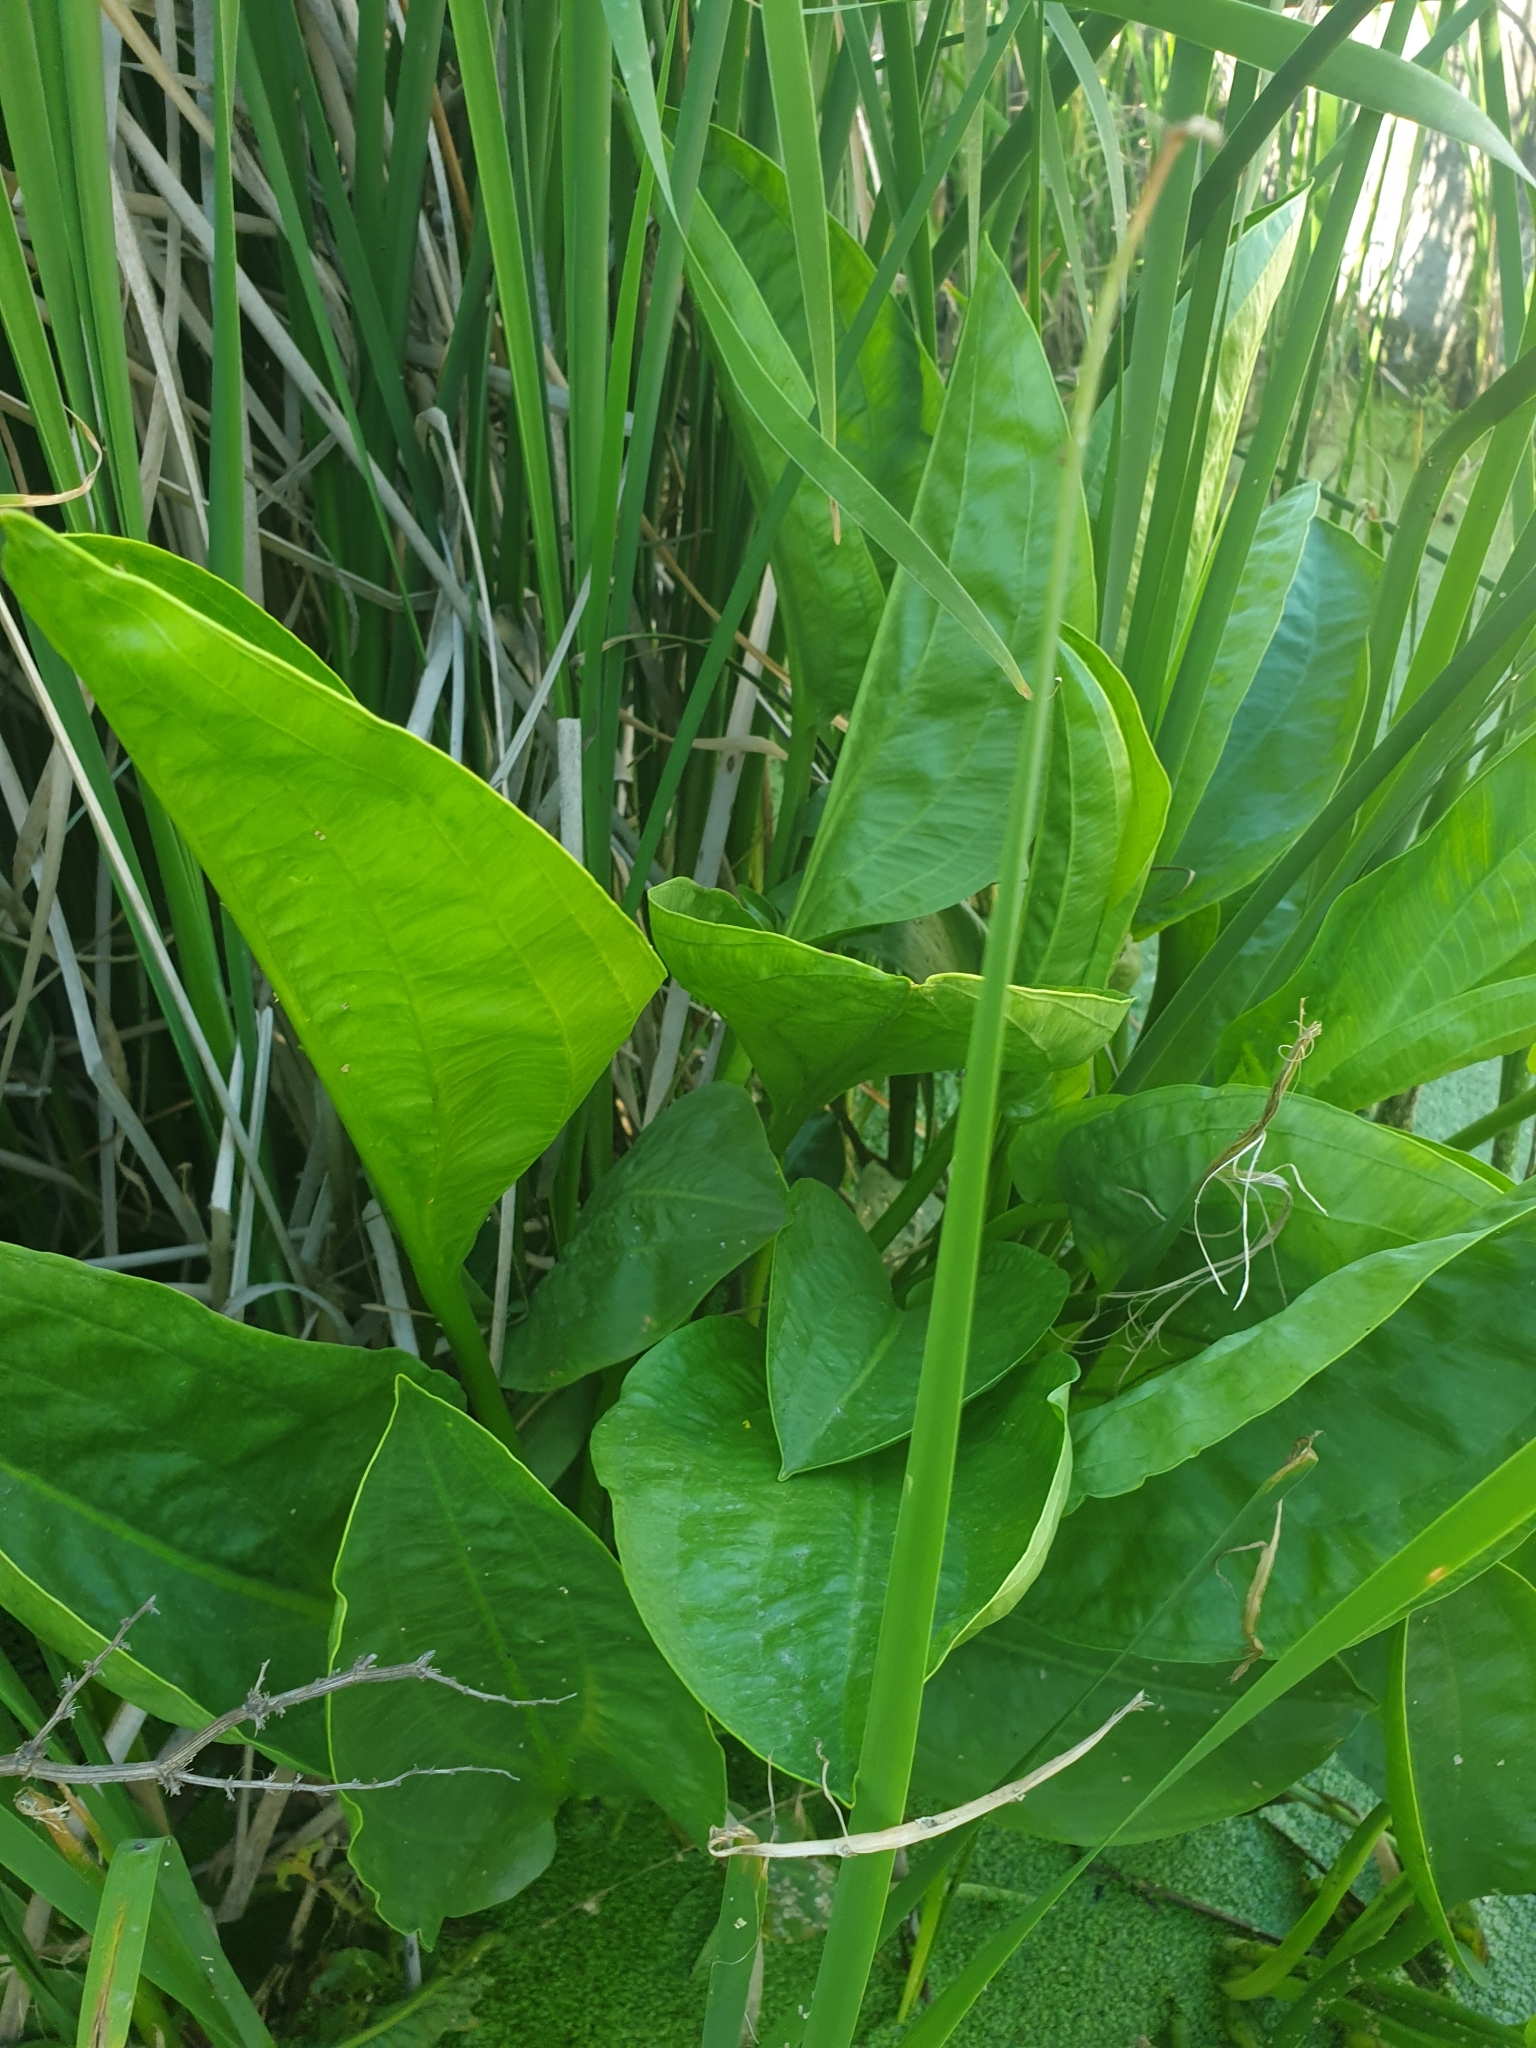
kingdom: Plantae
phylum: Tracheophyta
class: Liliopsida
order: Alismatales
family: Alismataceae
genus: Alisma
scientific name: Alisma plantago-aquatica
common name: Water-plantain
